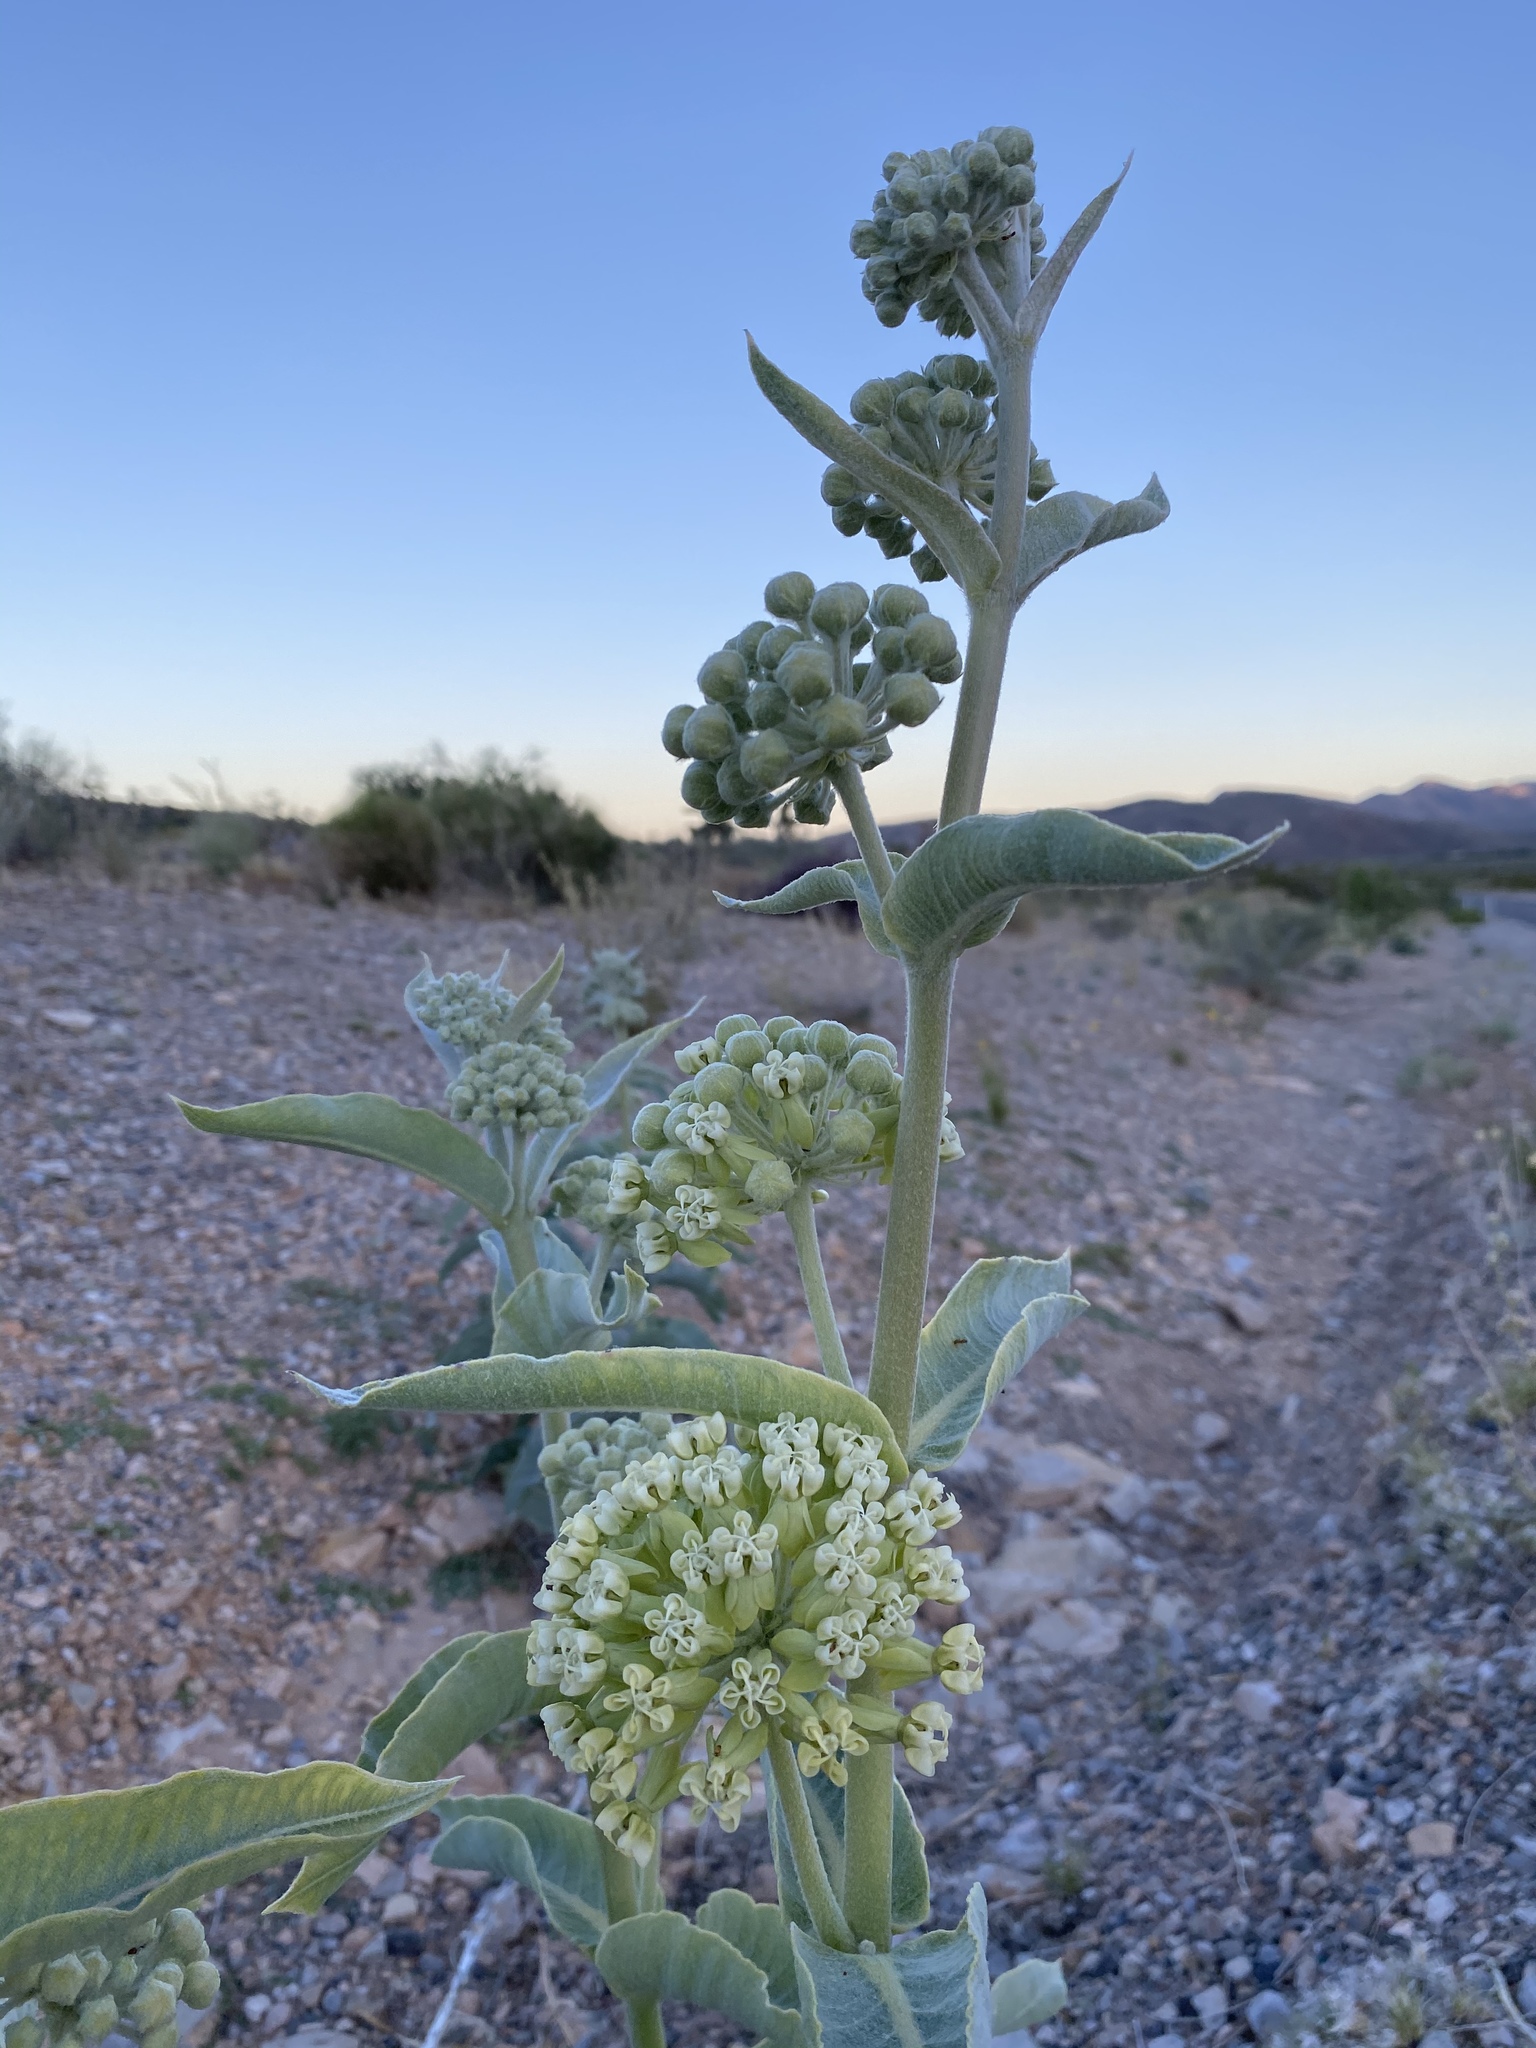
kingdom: Plantae
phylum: Tracheophyta
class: Magnoliopsida
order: Gentianales
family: Apocynaceae
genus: Asclepias
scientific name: Asclepias erosa
